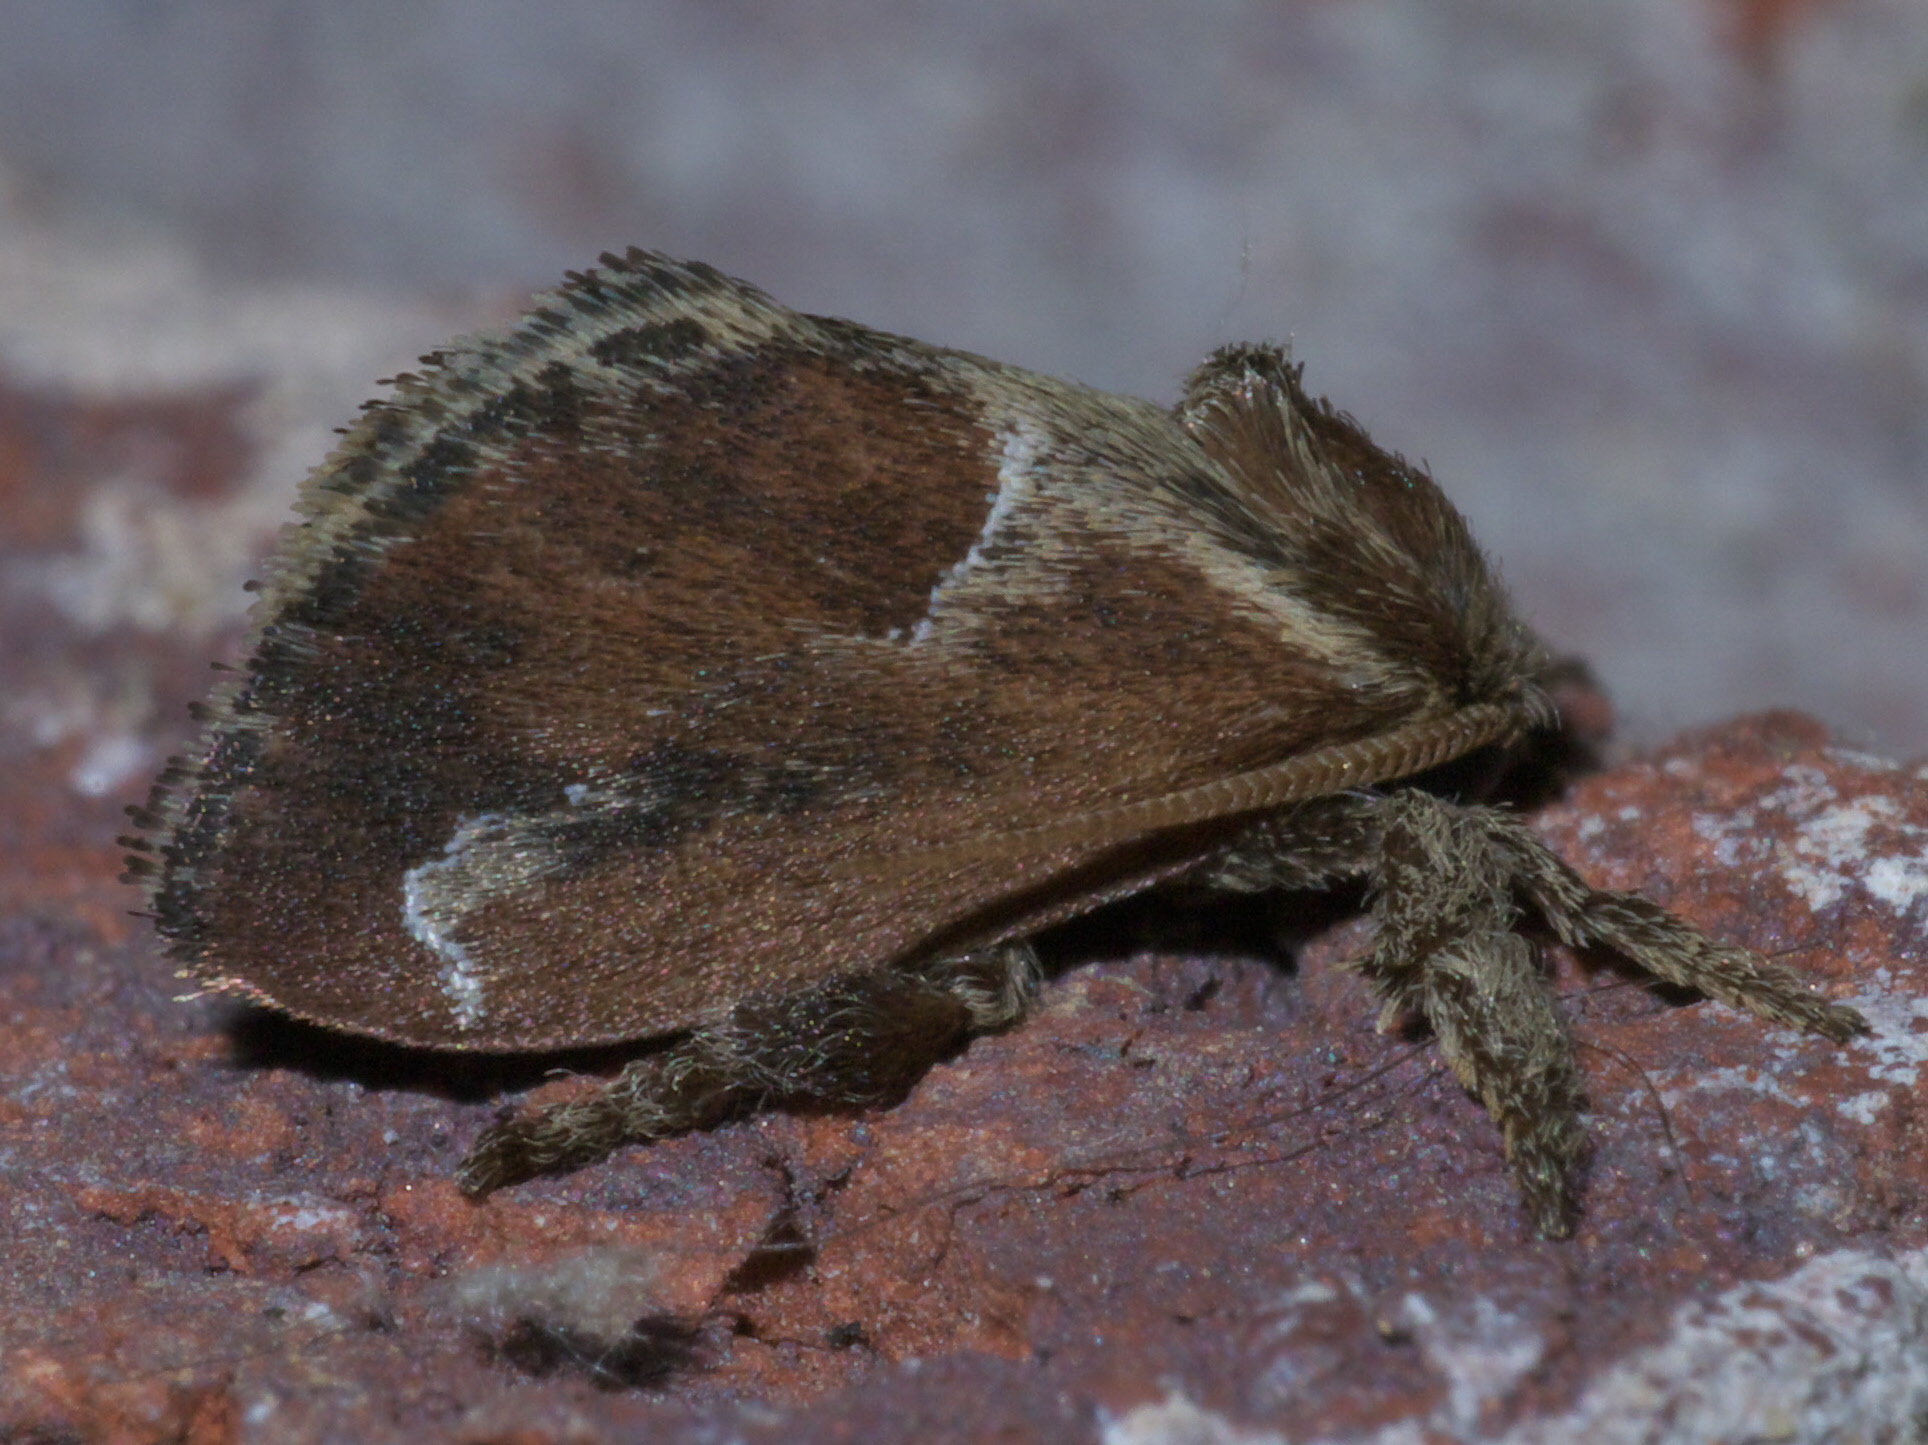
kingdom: Animalia
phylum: Arthropoda
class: Insecta
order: Lepidoptera
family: Limacodidae
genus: Adoneta
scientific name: Adoneta spinuloides
